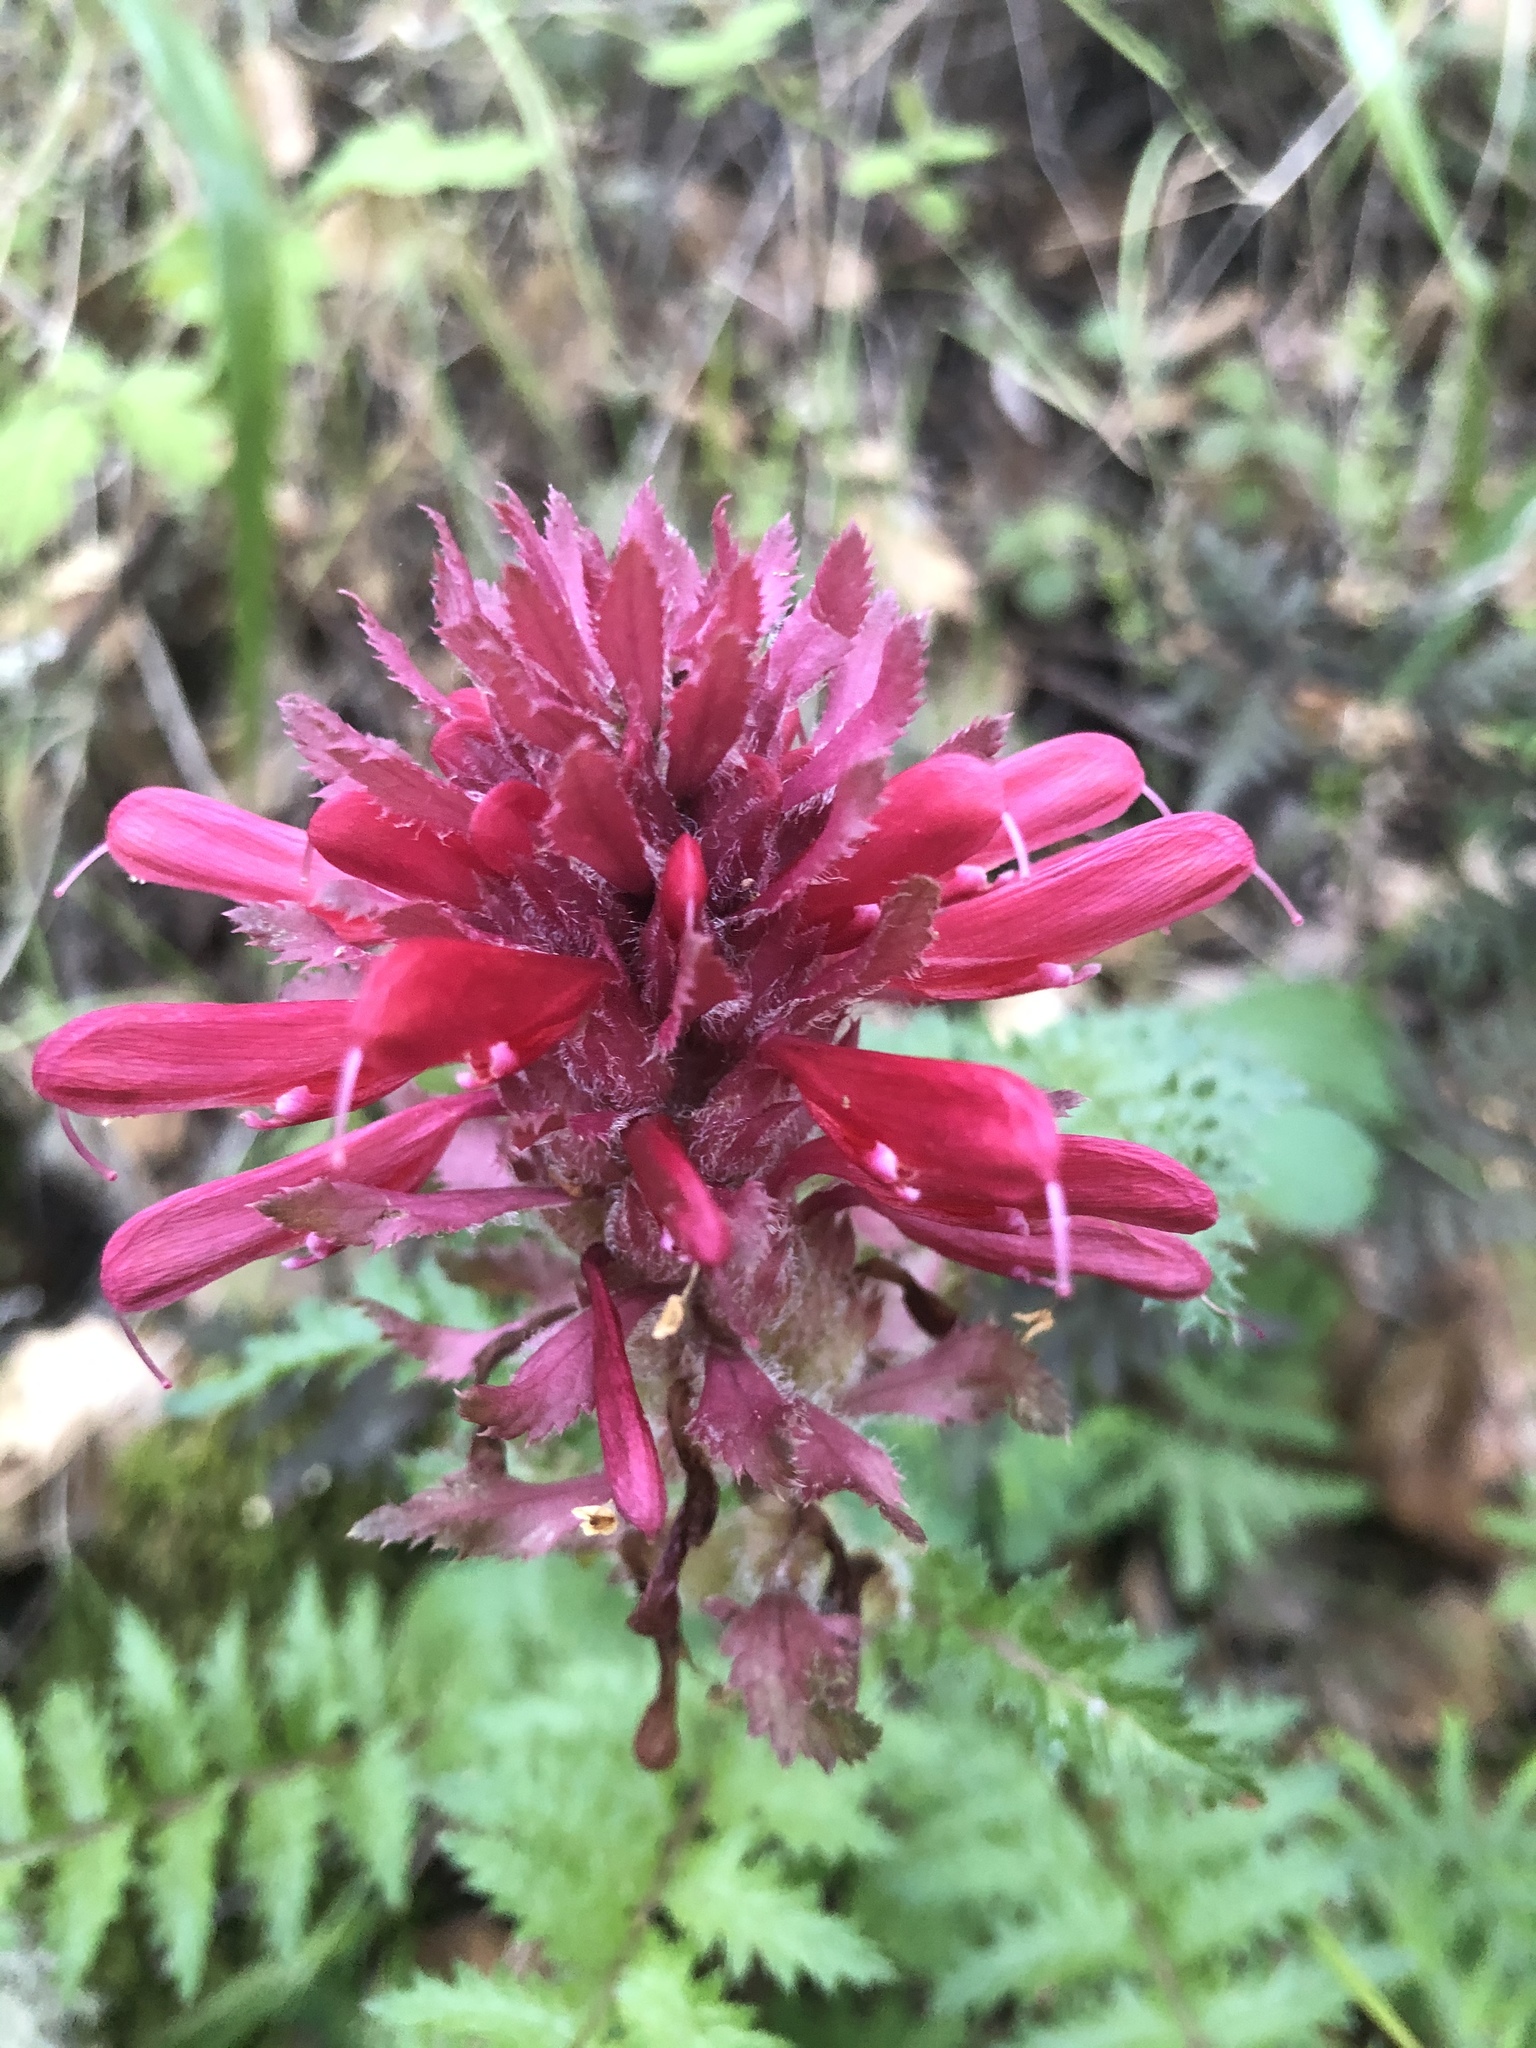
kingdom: Plantae
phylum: Tracheophyta
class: Magnoliopsida
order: Lamiales
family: Orobanchaceae
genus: Pedicularis
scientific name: Pedicularis densiflora
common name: Indian warrior
